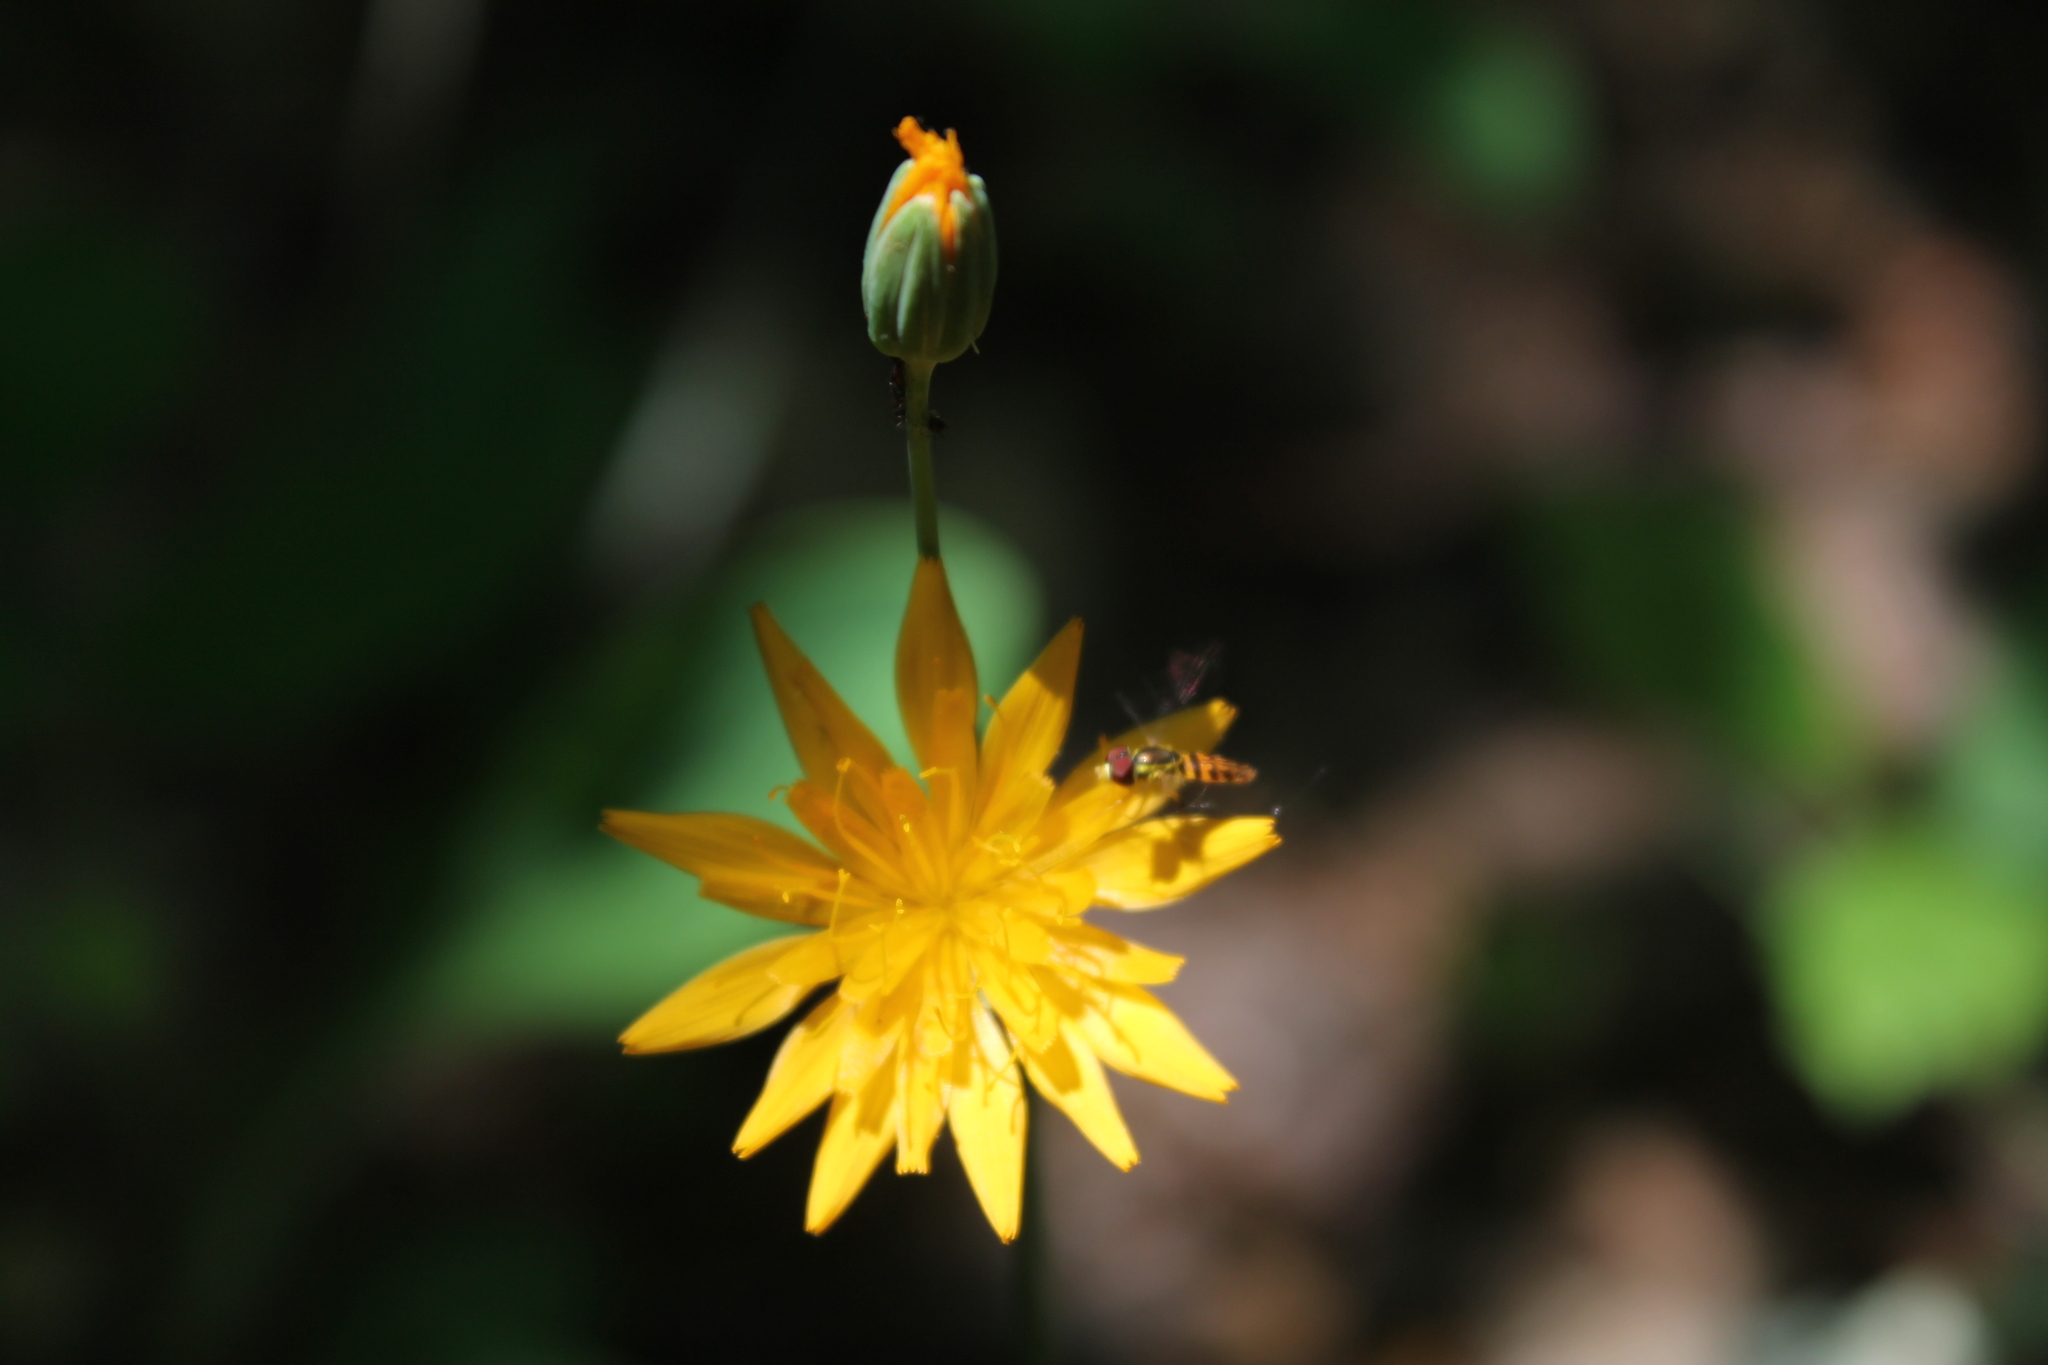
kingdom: Plantae
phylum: Tracheophyta
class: Magnoliopsida
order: Asterales
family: Asteraceae
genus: Krigia
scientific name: Krigia biflora
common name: Orange dwarf-dandelion
